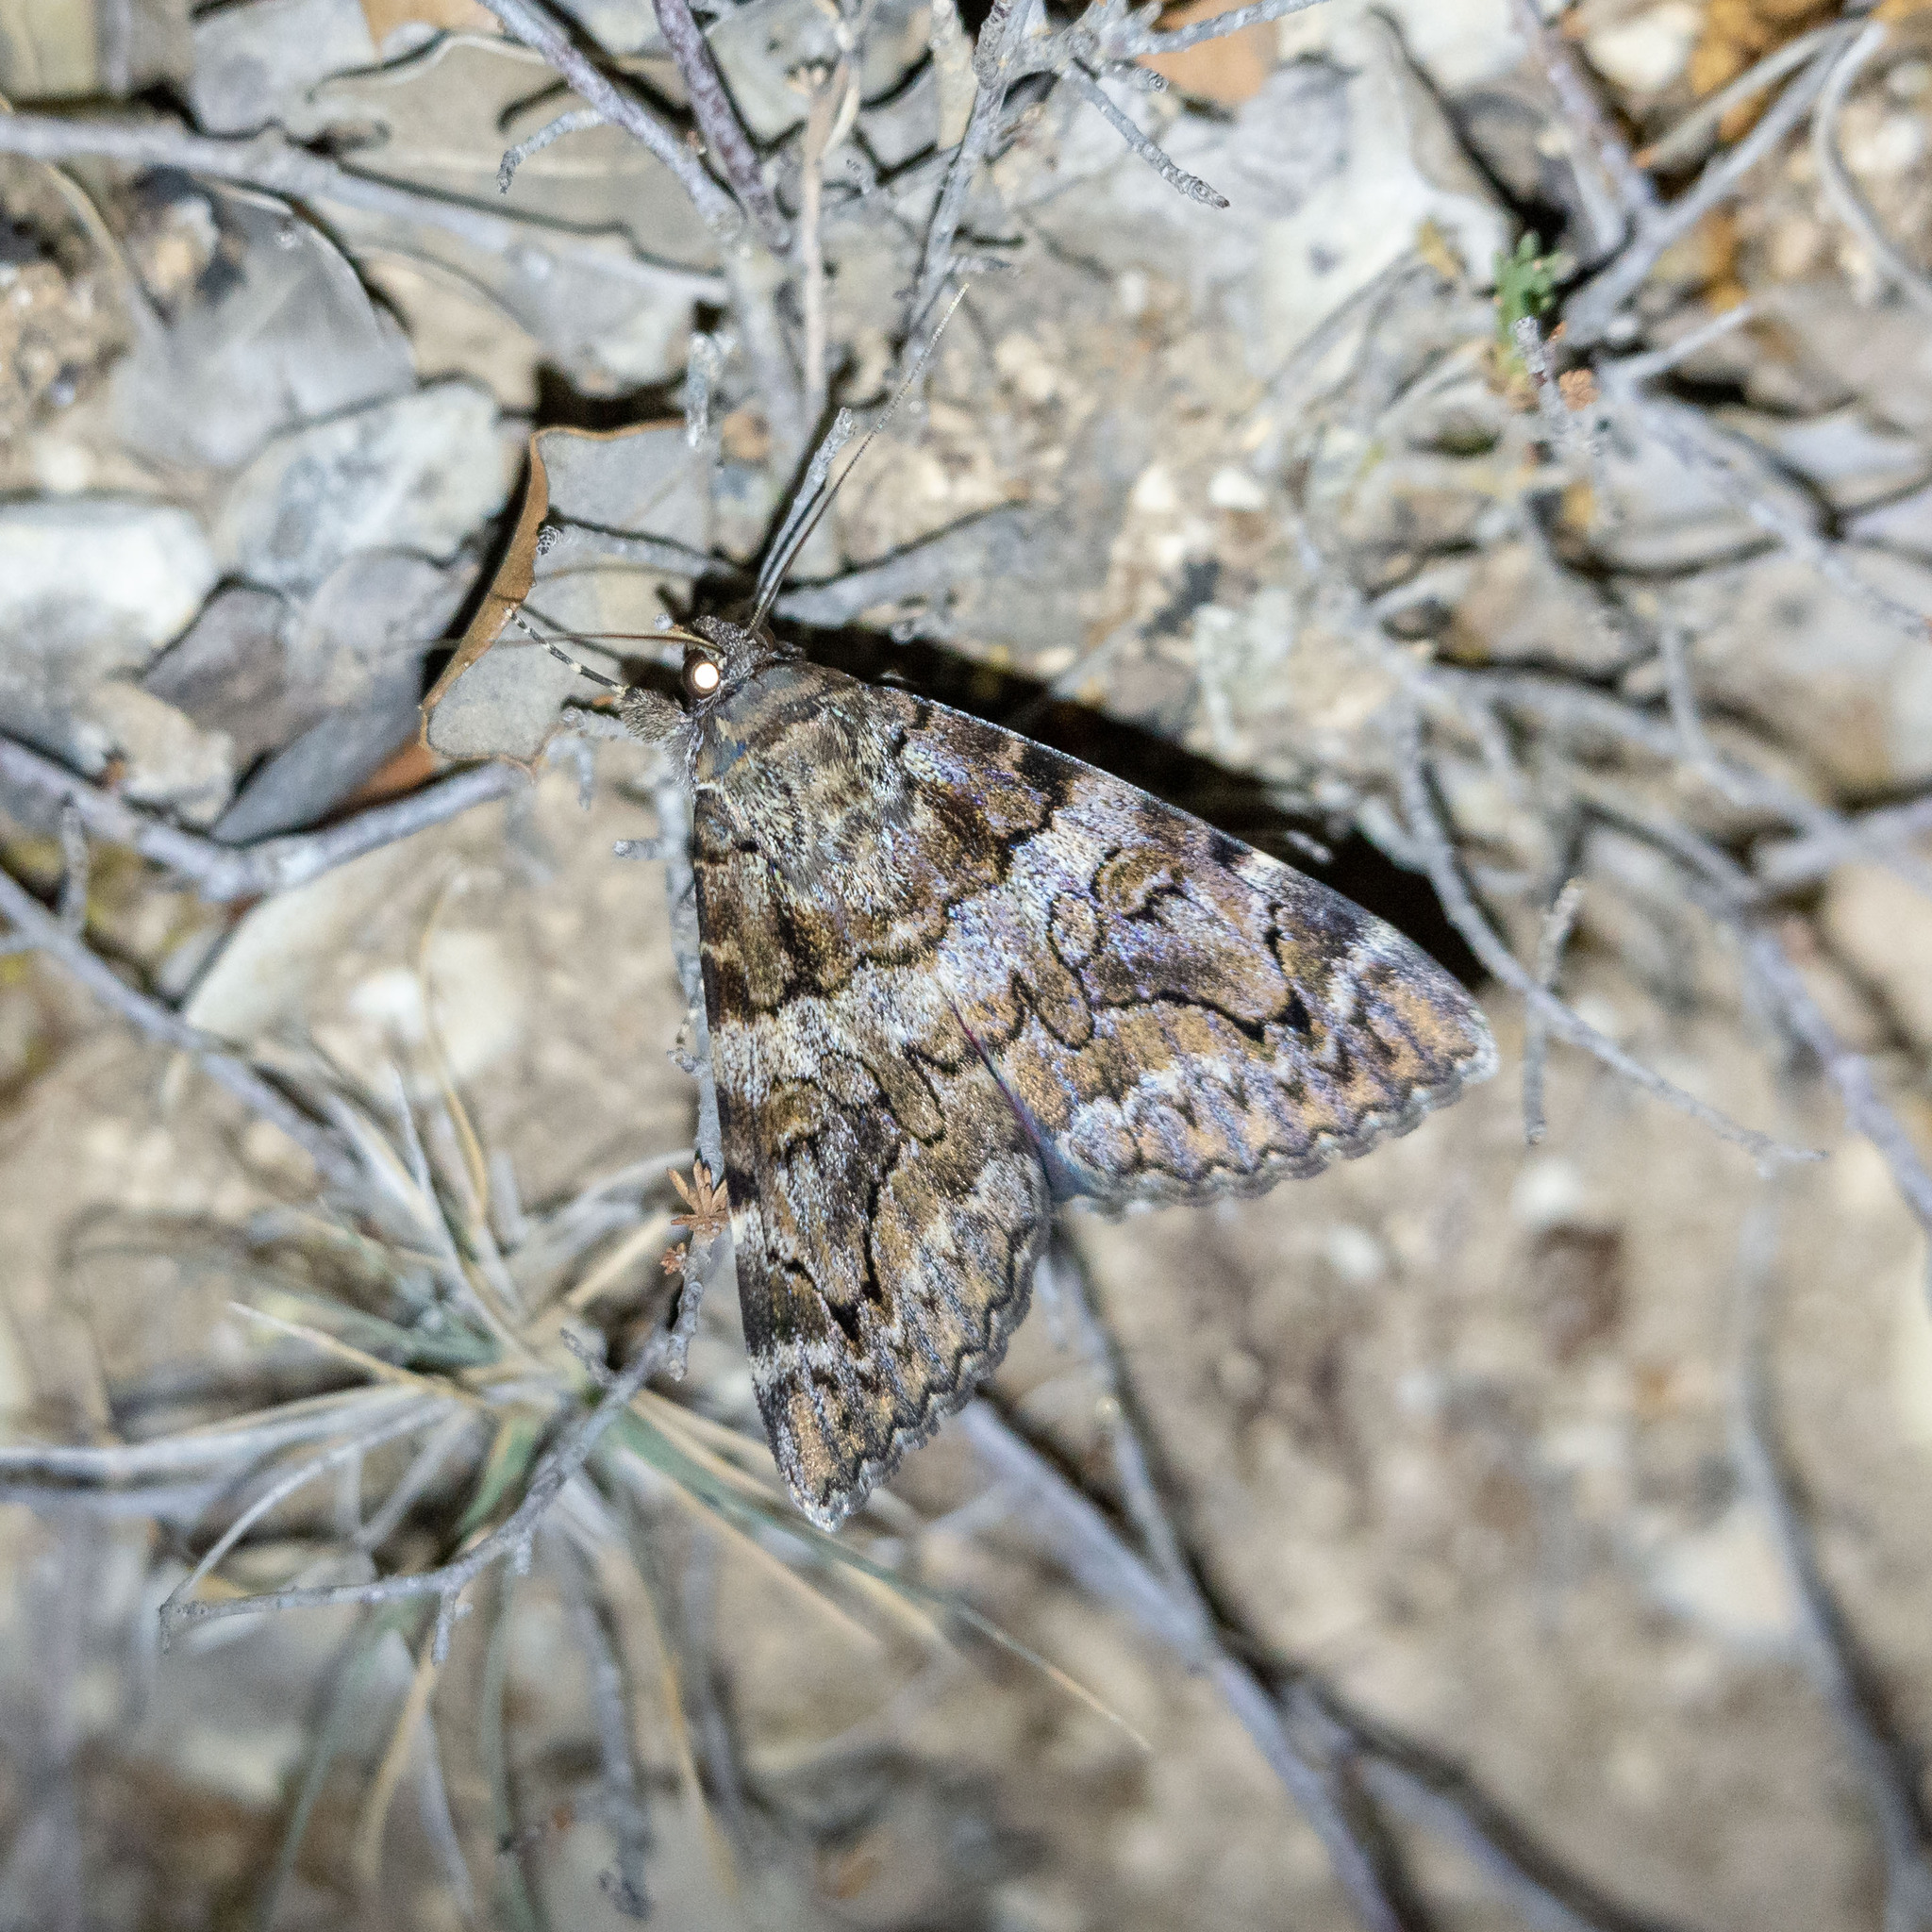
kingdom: Animalia
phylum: Arthropoda
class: Insecta
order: Lepidoptera
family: Erebidae
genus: Catocala
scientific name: Catocala coniuncta
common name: Minsmere crimson underwing
